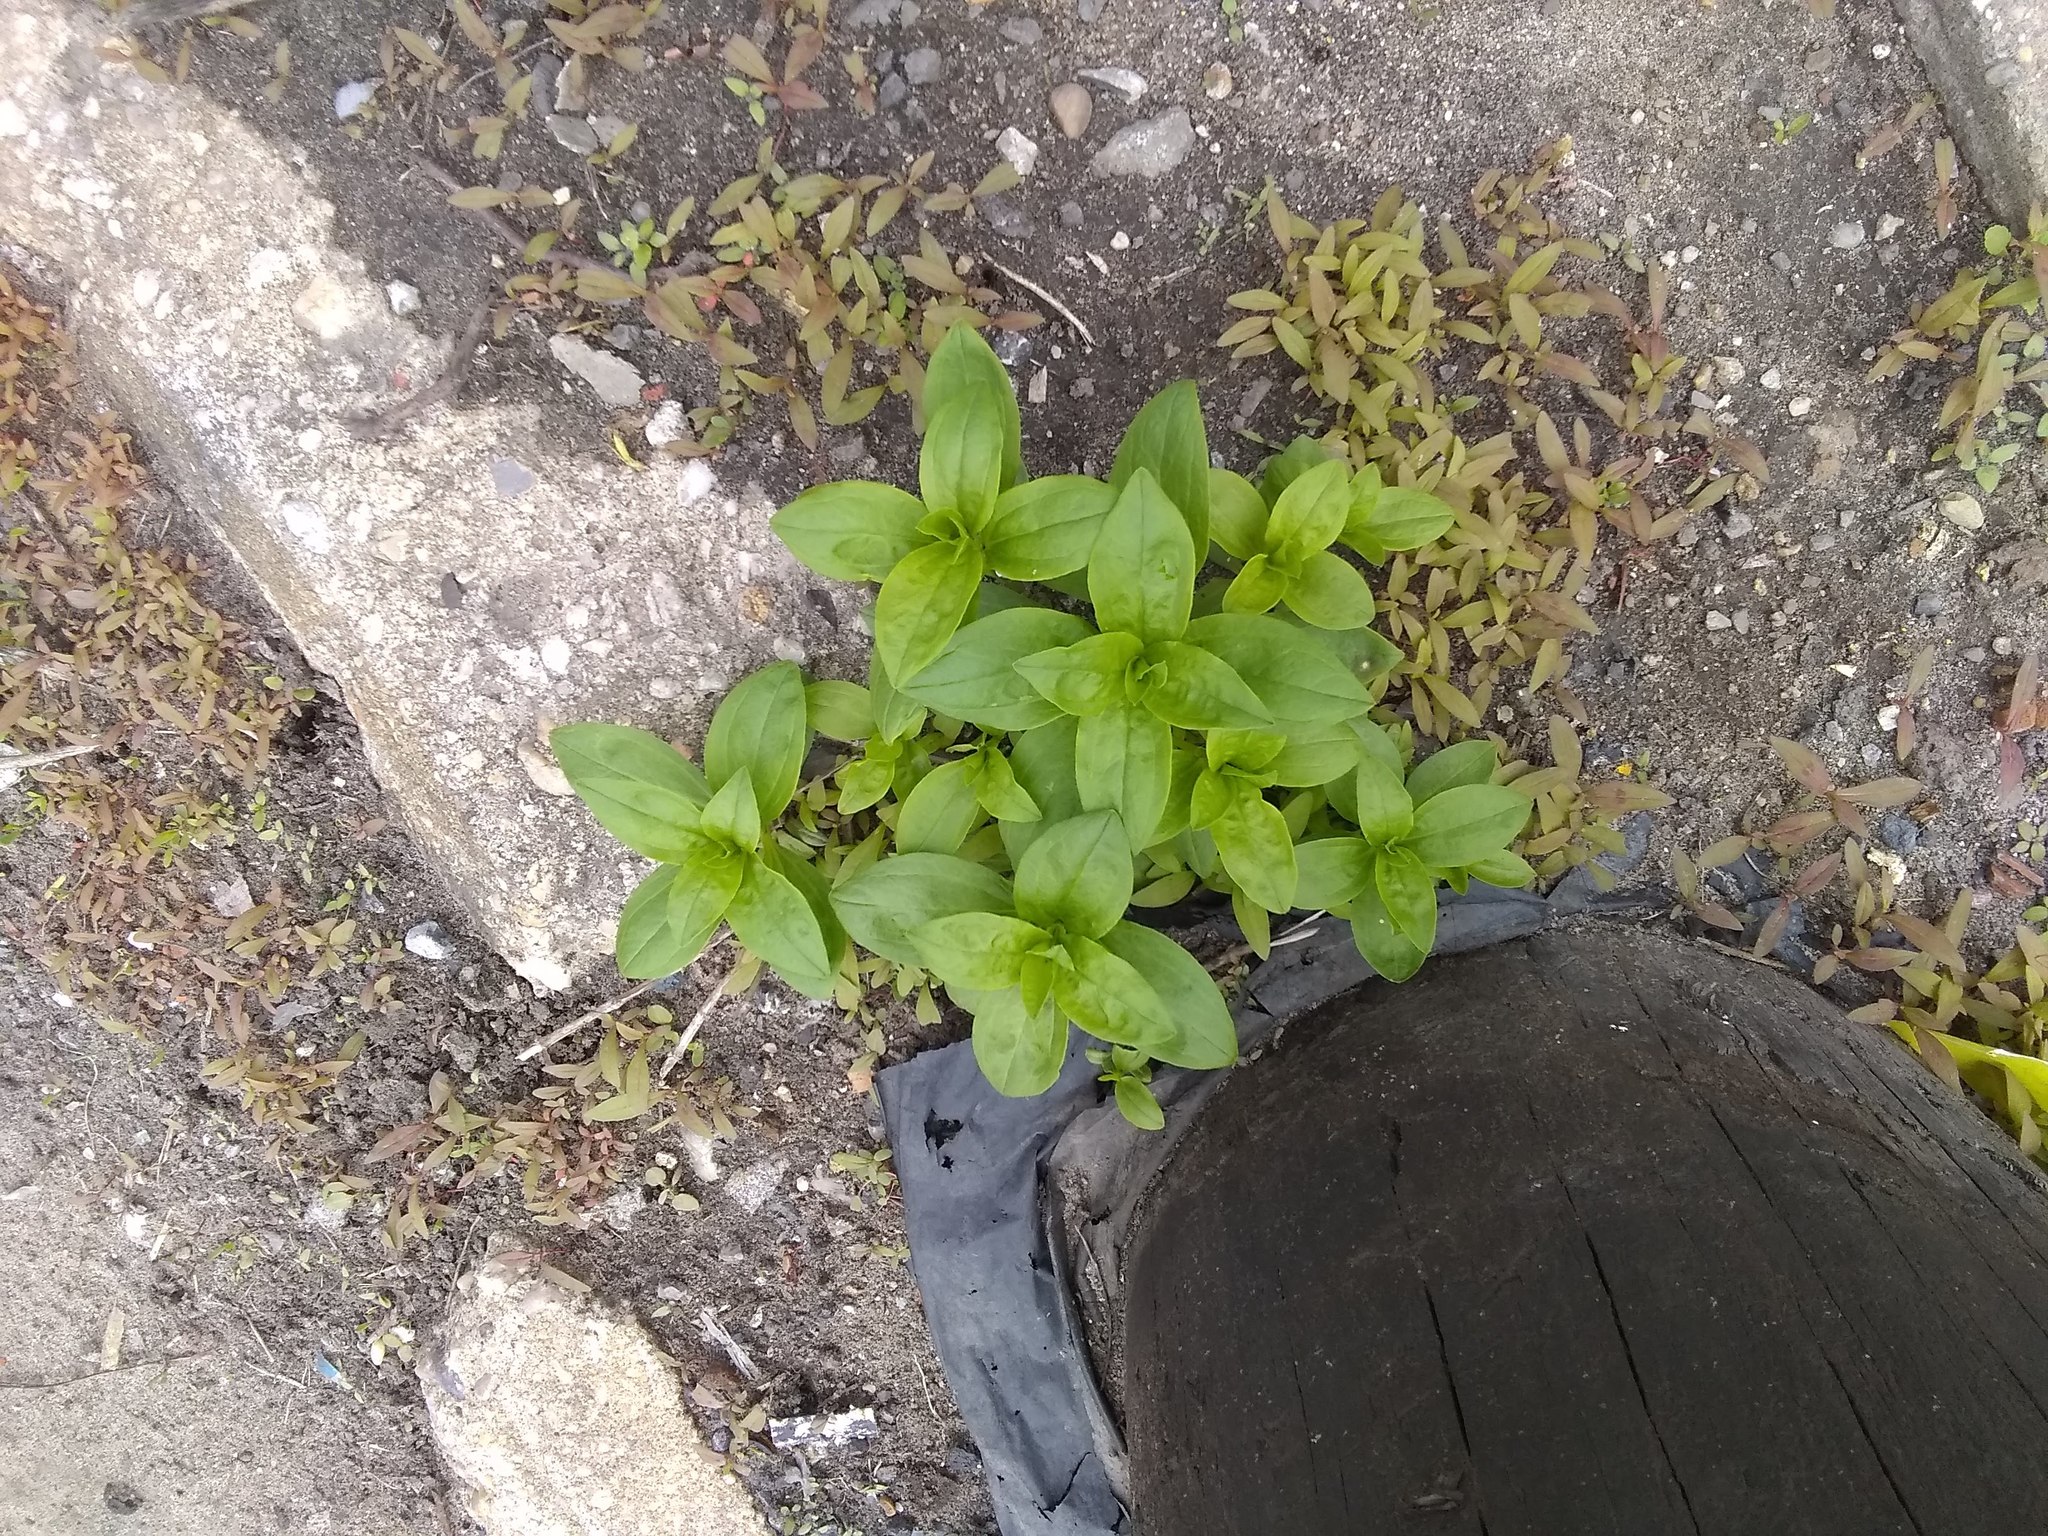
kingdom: Plantae
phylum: Tracheophyta
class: Magnoliopsida
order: Caryophyllales
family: Caryophyllaceae
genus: Saponaria
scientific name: Saponaria officinalis
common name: Soapwort
